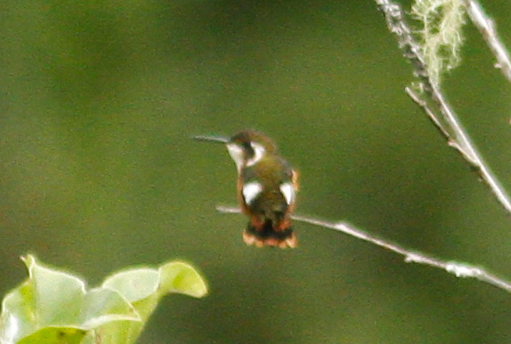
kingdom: Animalia
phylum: Chordata
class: Aves
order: Apodiformes
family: Trochilidae
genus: Chaetocercus
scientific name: Chaetocercus mulsant
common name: White-bellied woodstar
